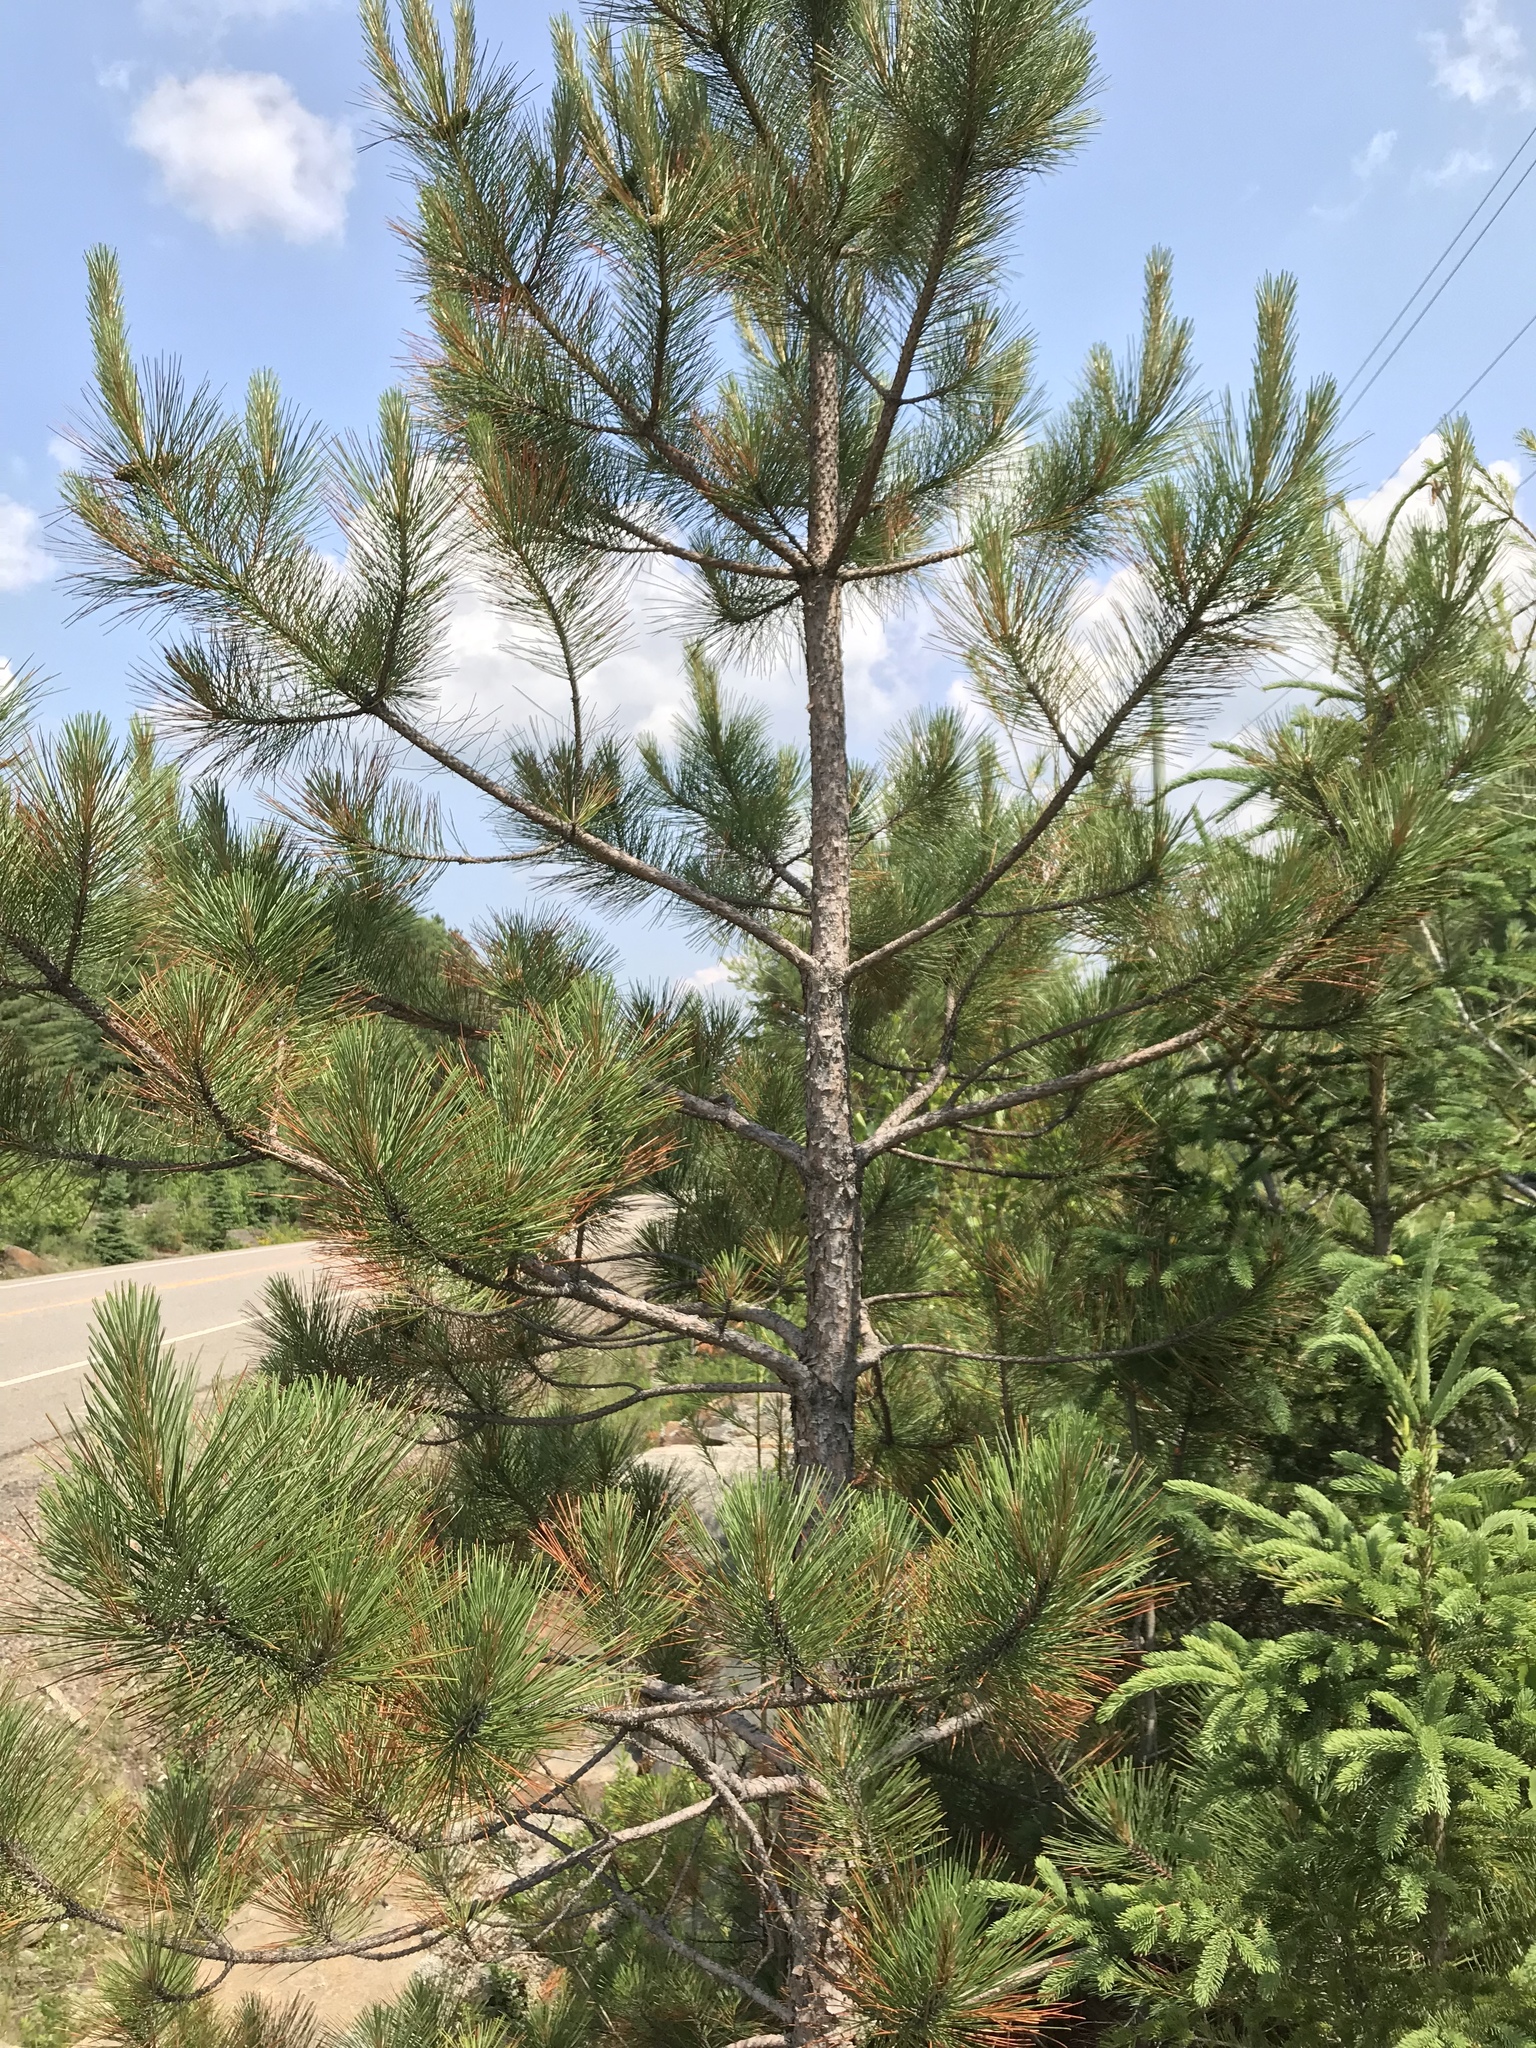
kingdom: Plantae
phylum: Tracheophyta
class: Pinopsida
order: Pinales
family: Pinaceae
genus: Pinus
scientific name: Pinus resinosa
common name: Norway pine
